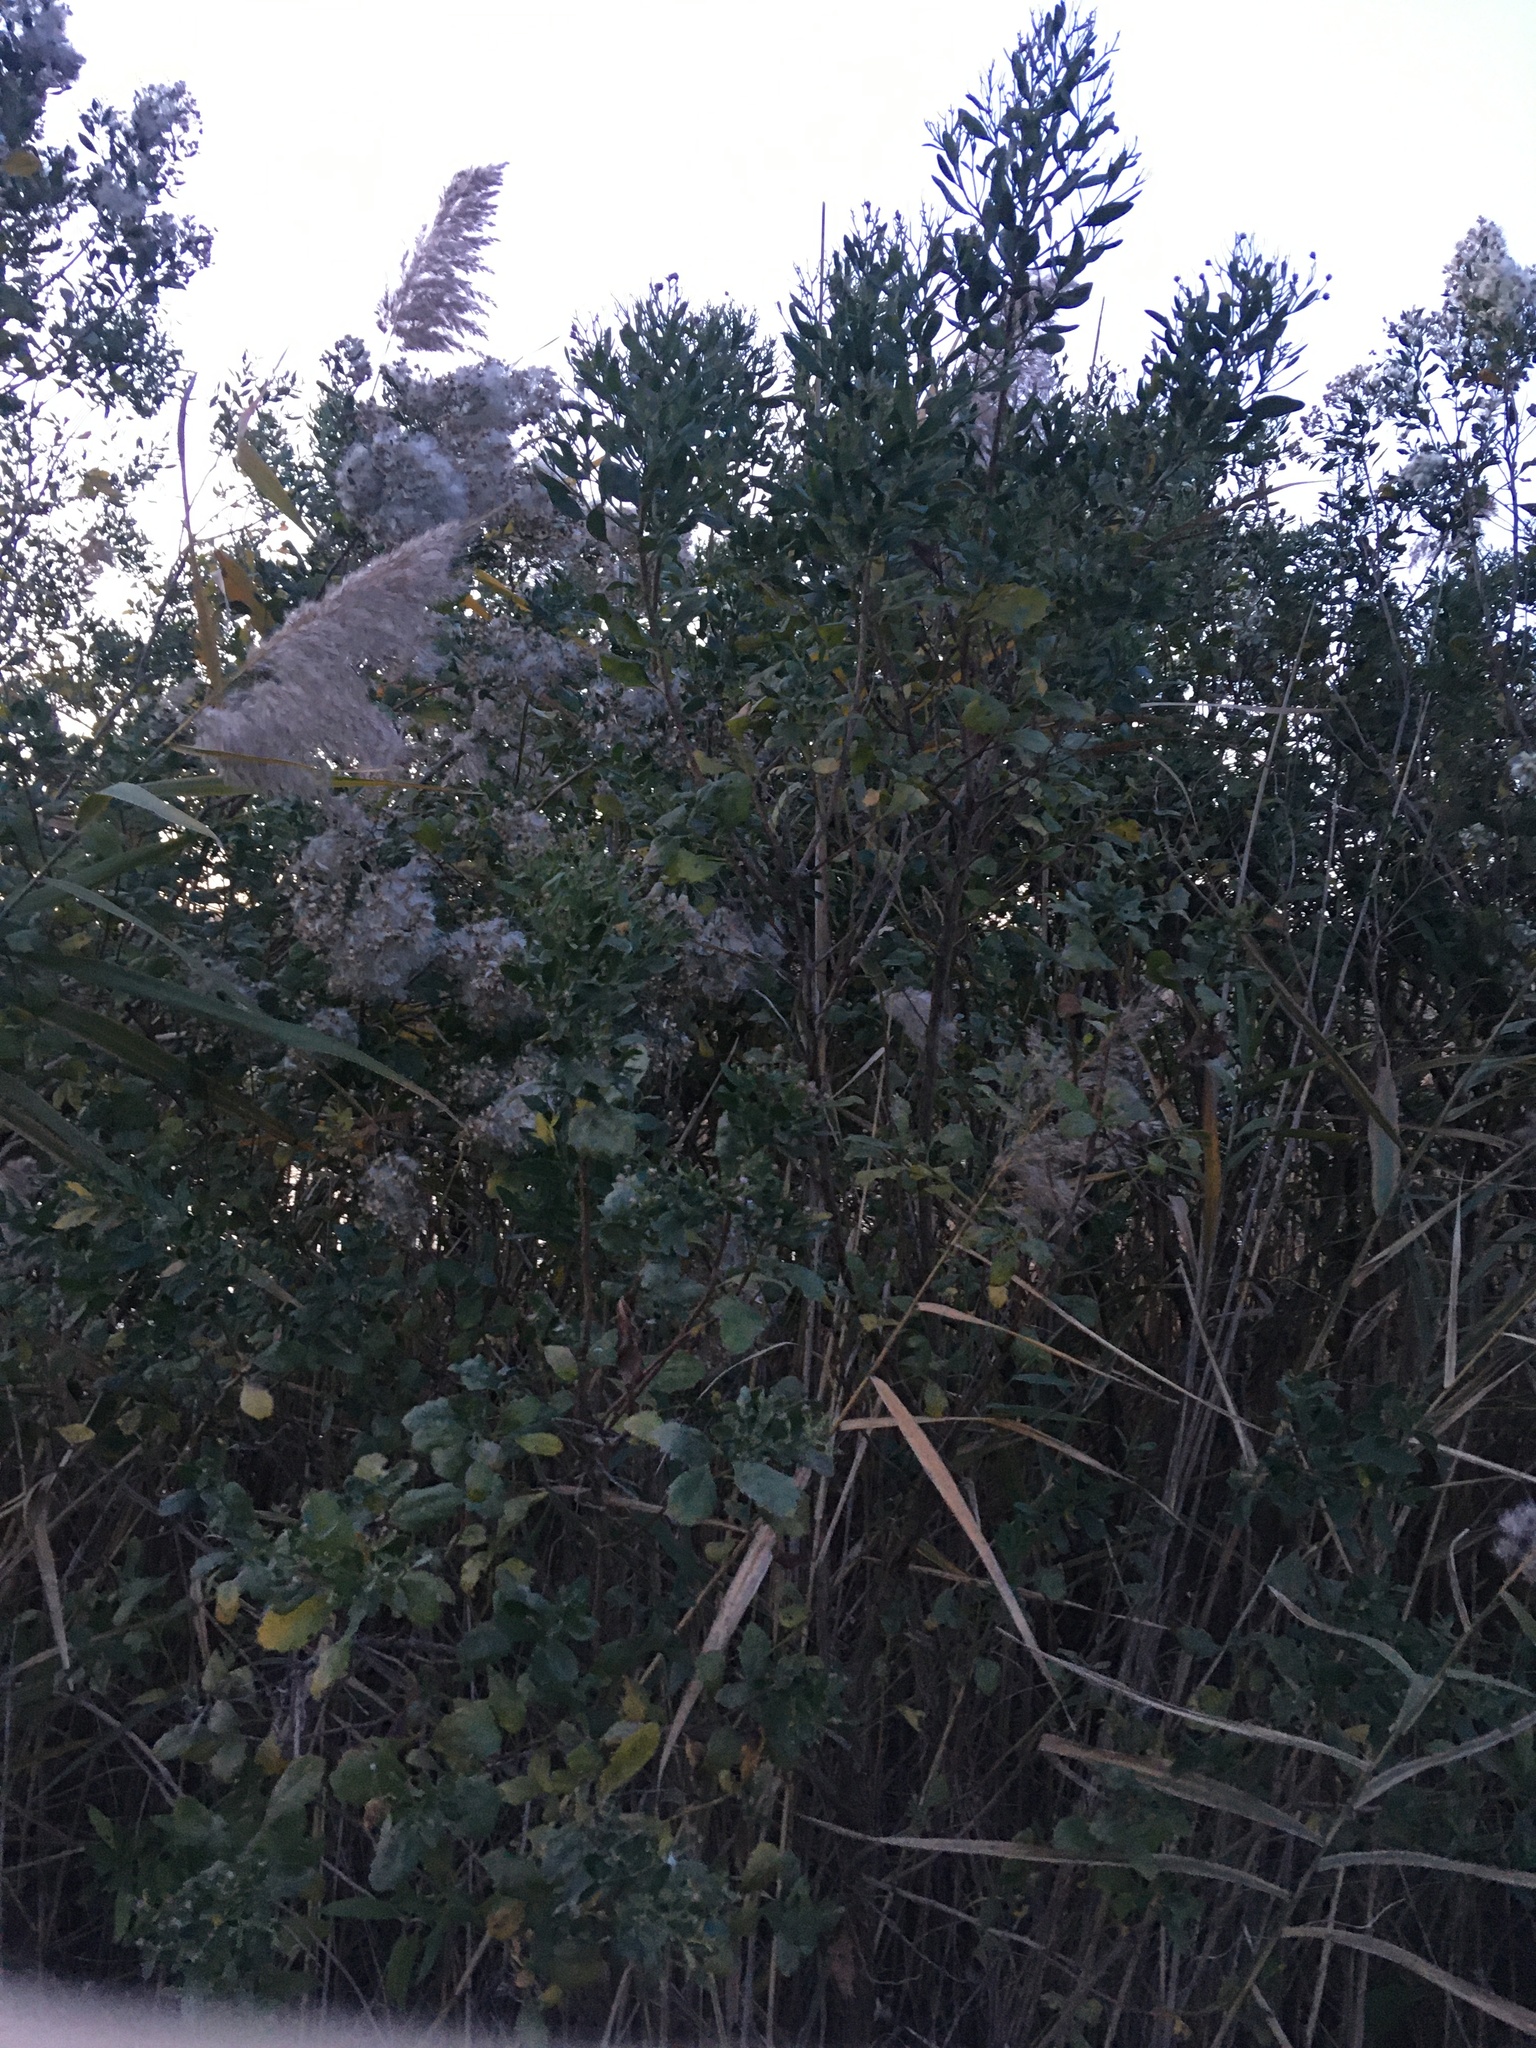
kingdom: Plantae
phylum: Tracheophyta
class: Magnoliopsida
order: Asterales
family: Asteraceae
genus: Baccharis
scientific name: Baccharis halimifolia
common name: Eastern baccharis
